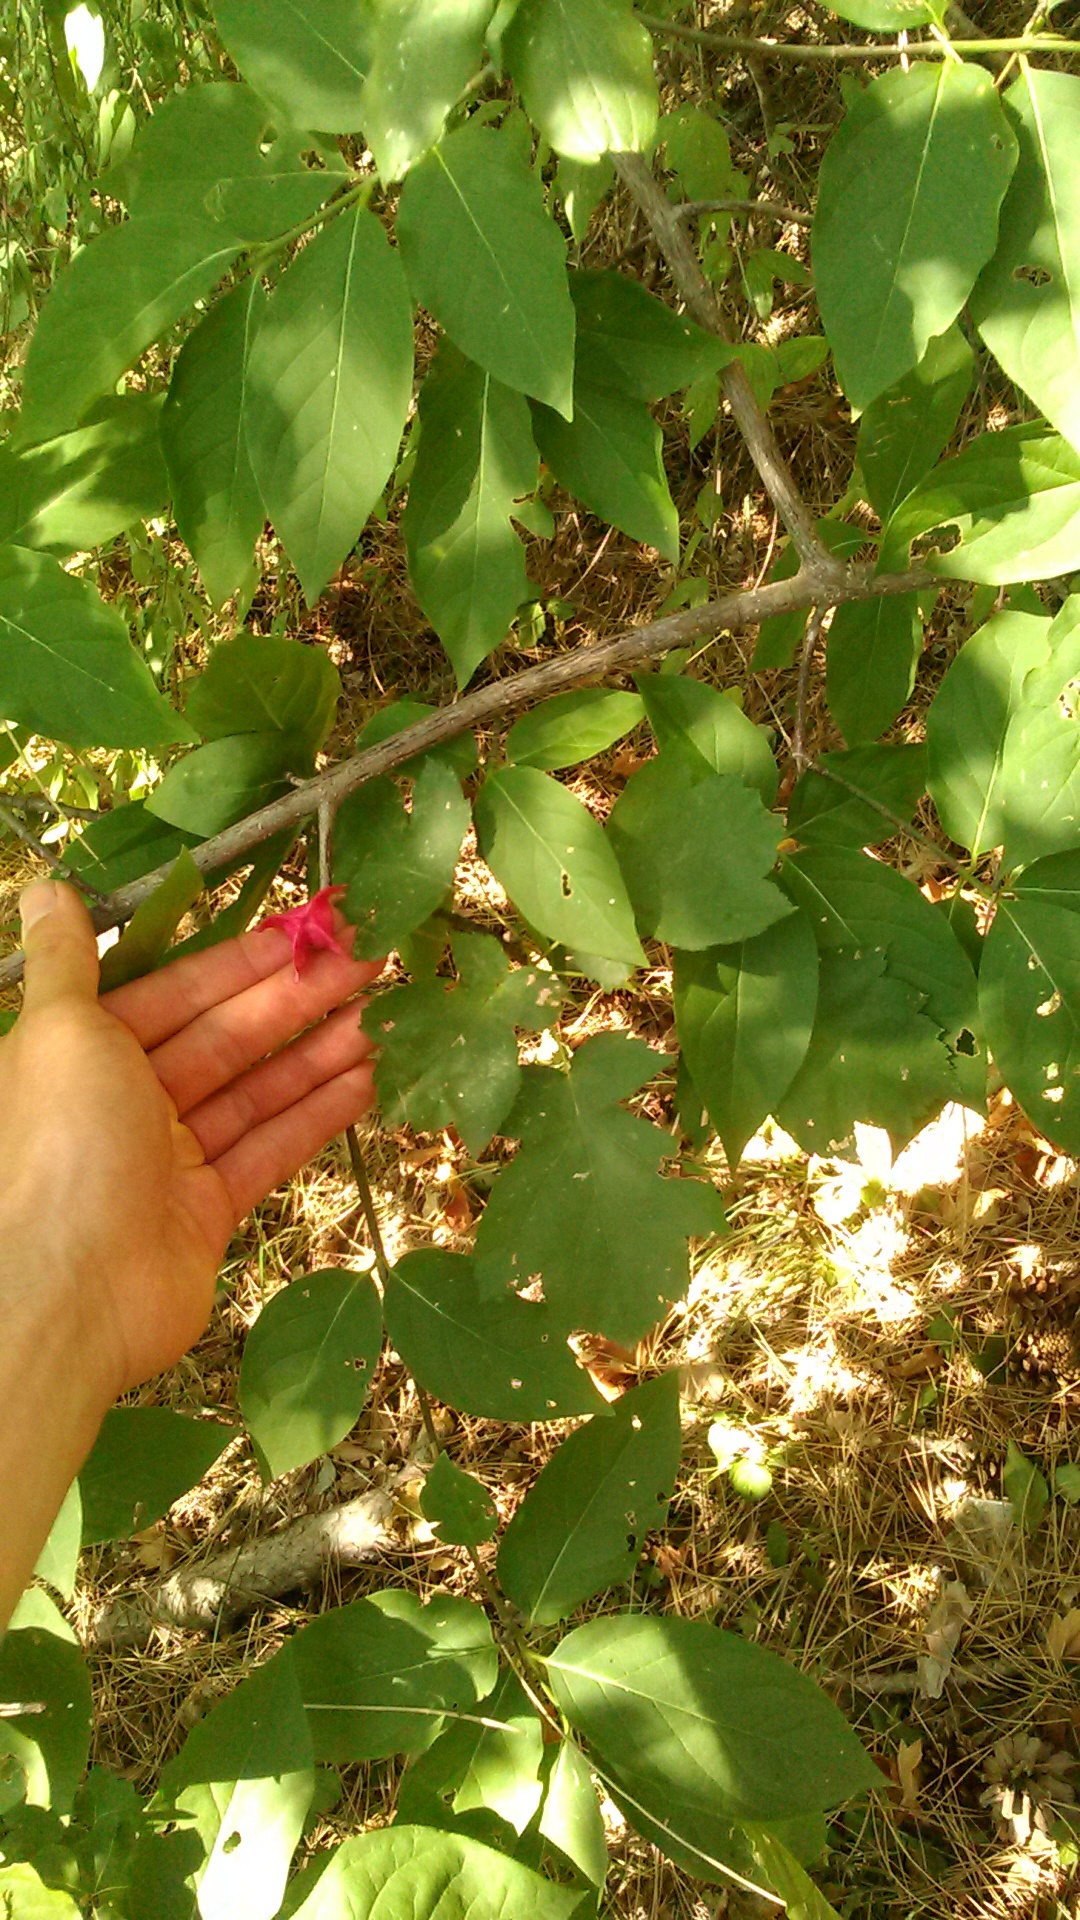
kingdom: Plantae
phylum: Tracheophyta
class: Magnoliopsida
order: Celastrales
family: Celastraceae
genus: Euonymus
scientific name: Euonymus latifolius
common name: Large-leaved spindle
